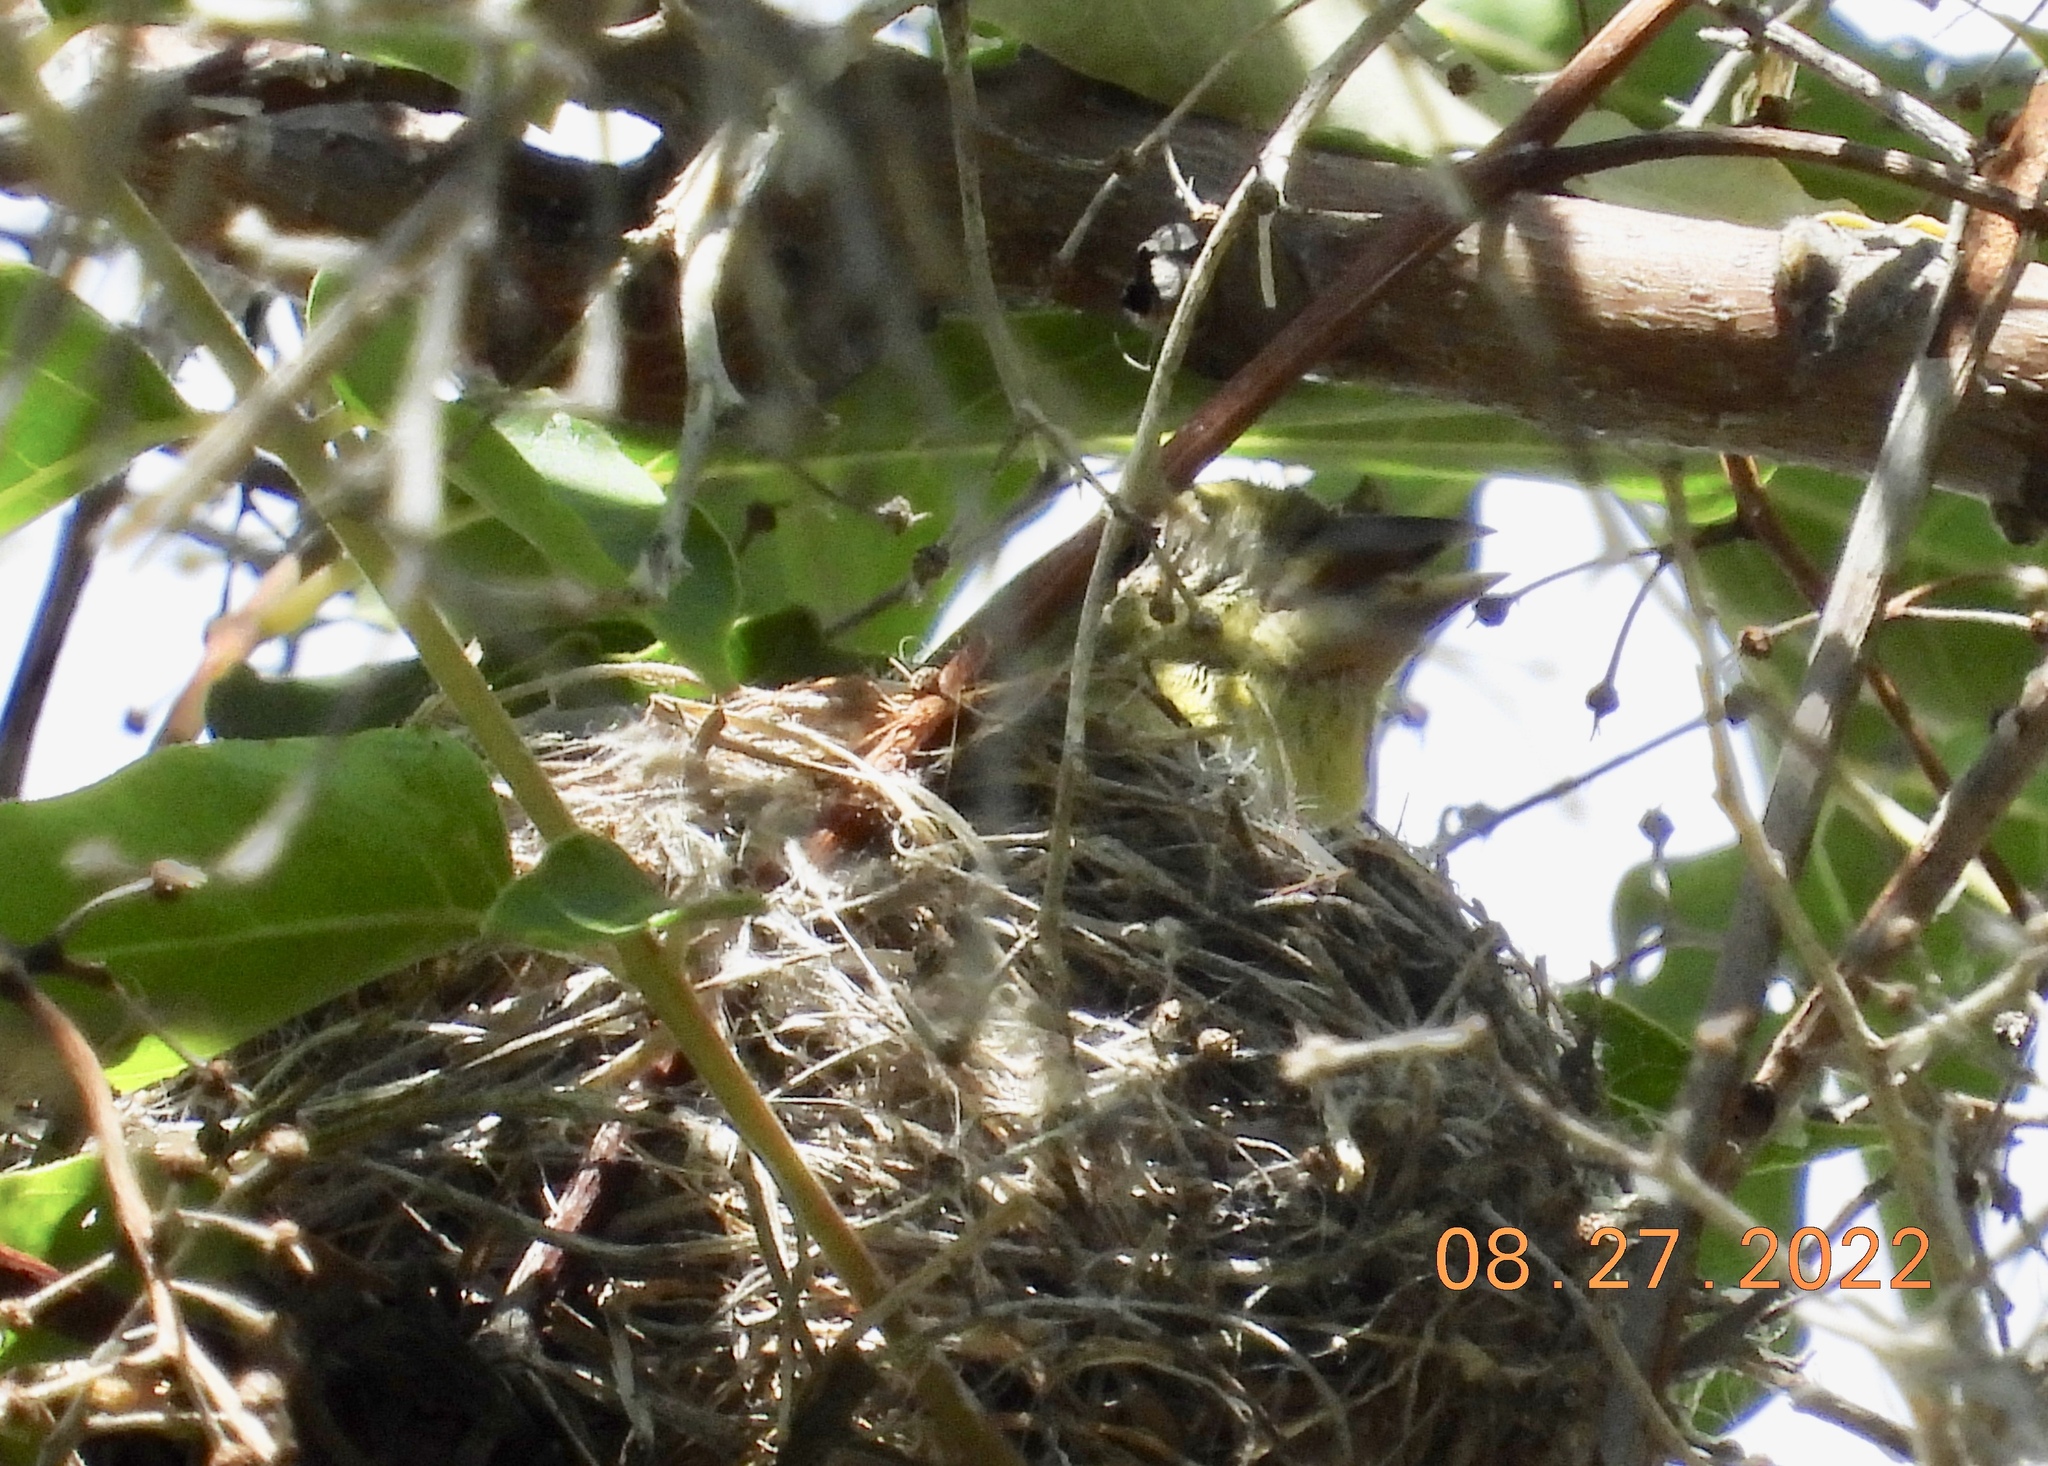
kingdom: Animalia
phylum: Chordata
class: Aves
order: Passeriformes
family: Fringillidae
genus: Spinus
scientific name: Spinus psaltria
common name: Lesser goldfinch
